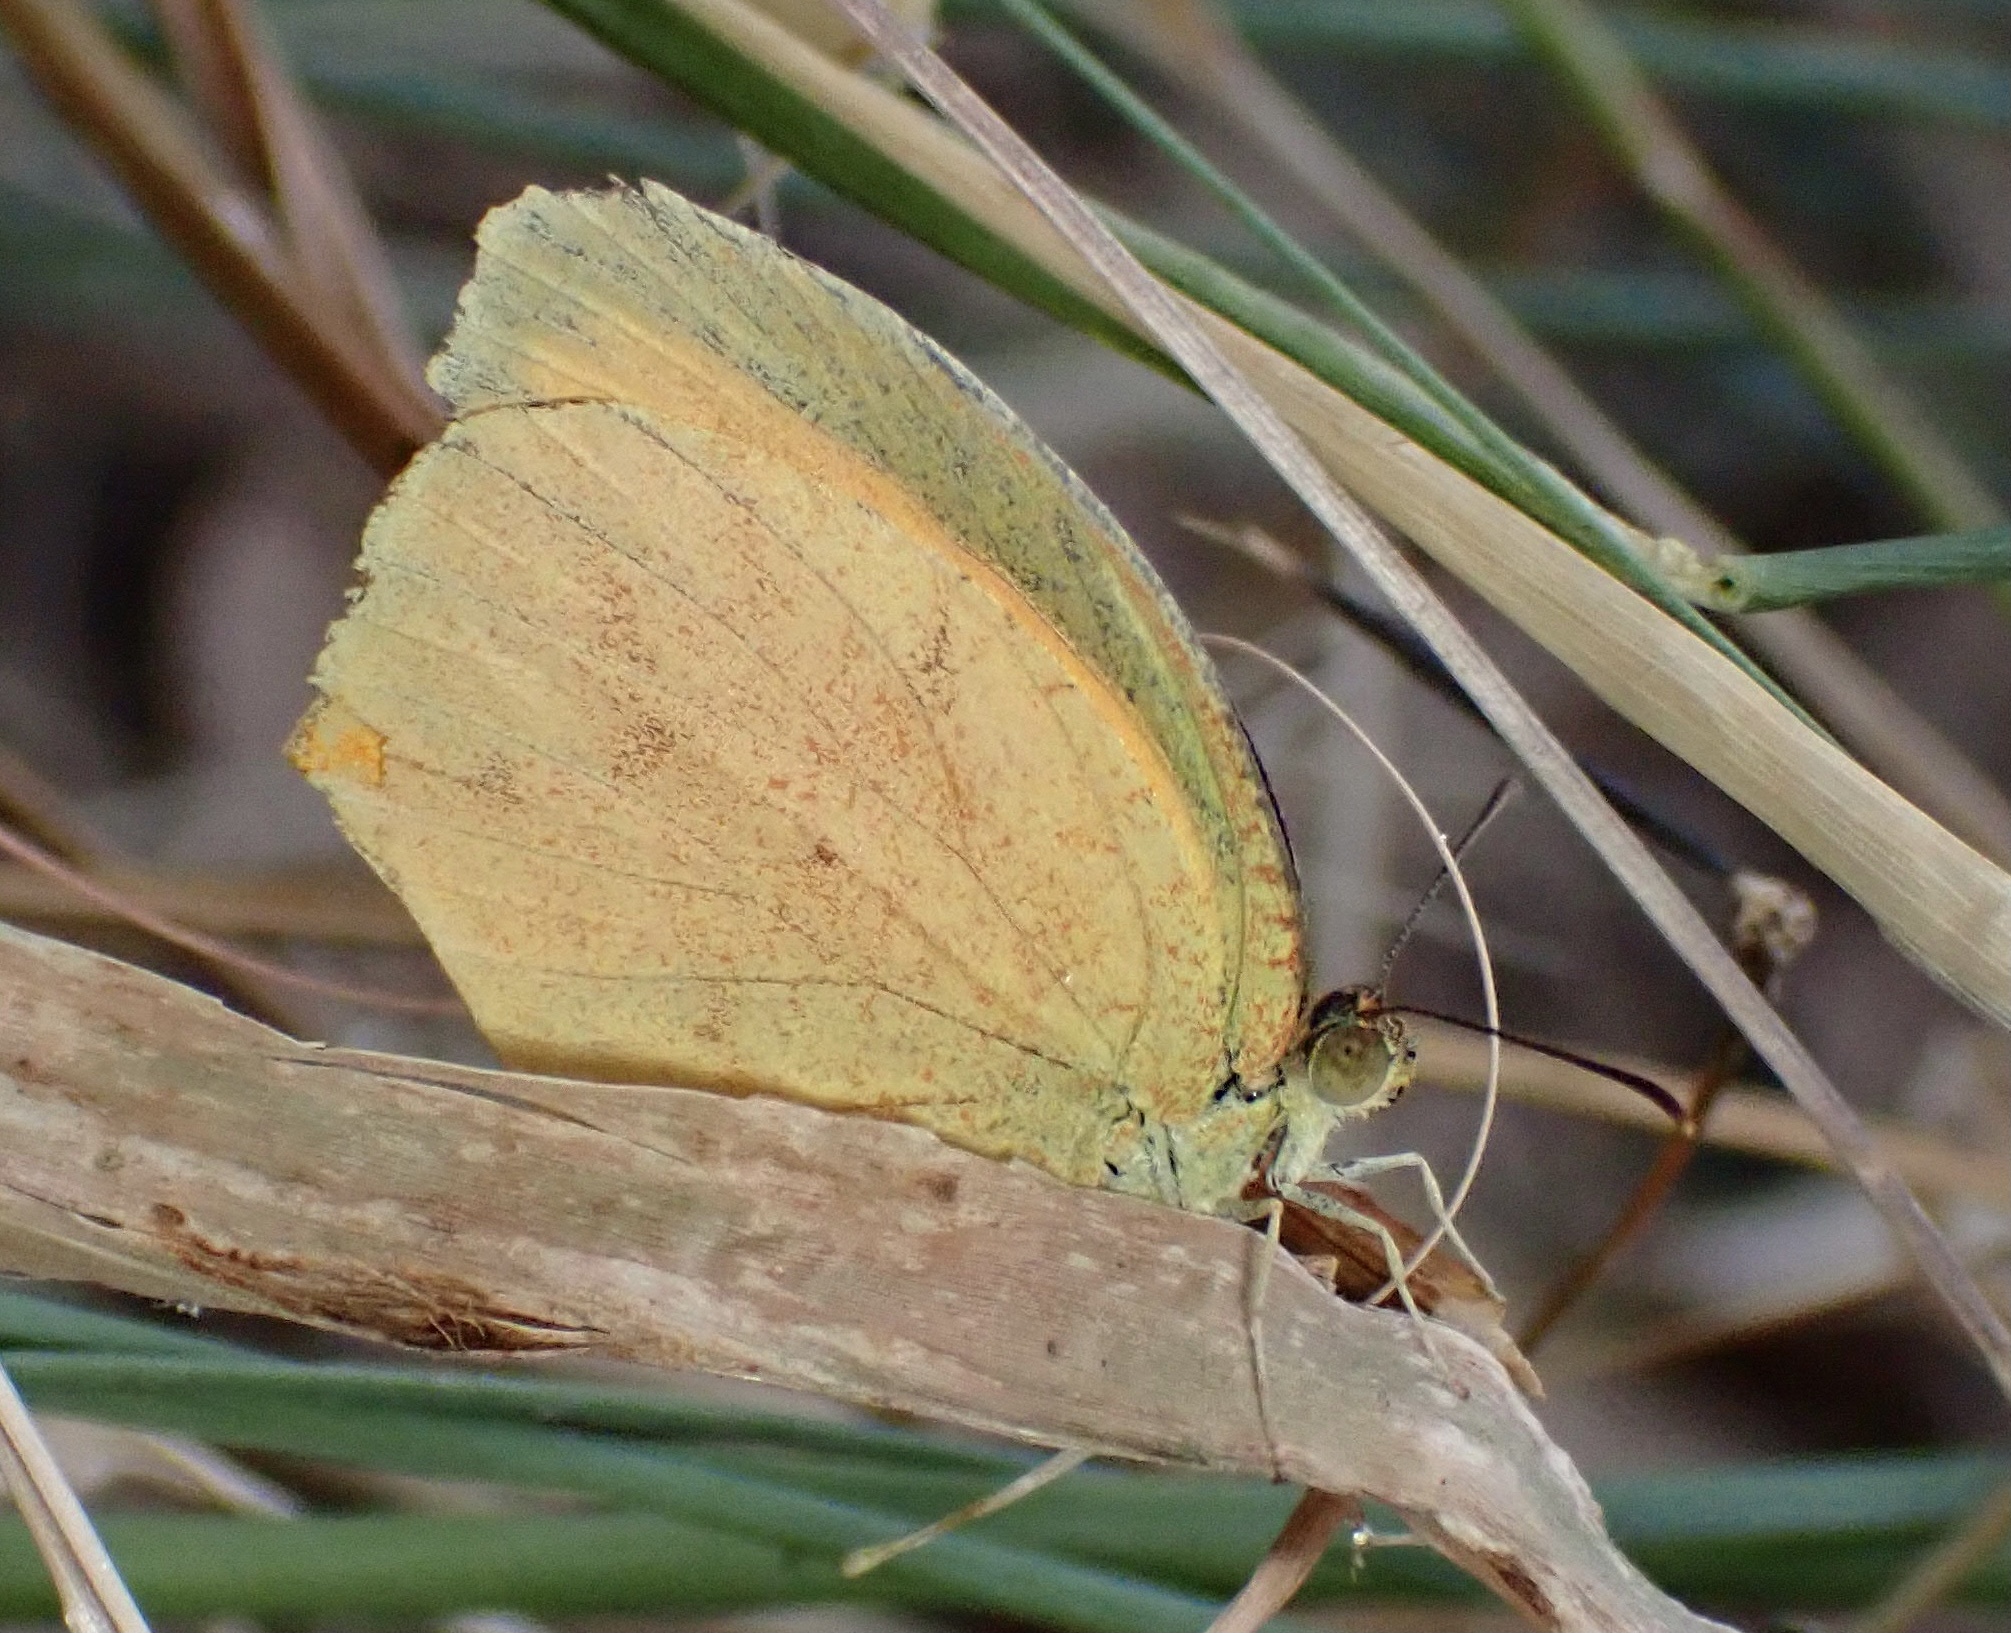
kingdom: Animalia
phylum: Arthropoda
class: Insecta
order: Lepidoptera
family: Pieridae
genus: Pyrisitia
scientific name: Pyrisitia proterpia
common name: Tailed orange
